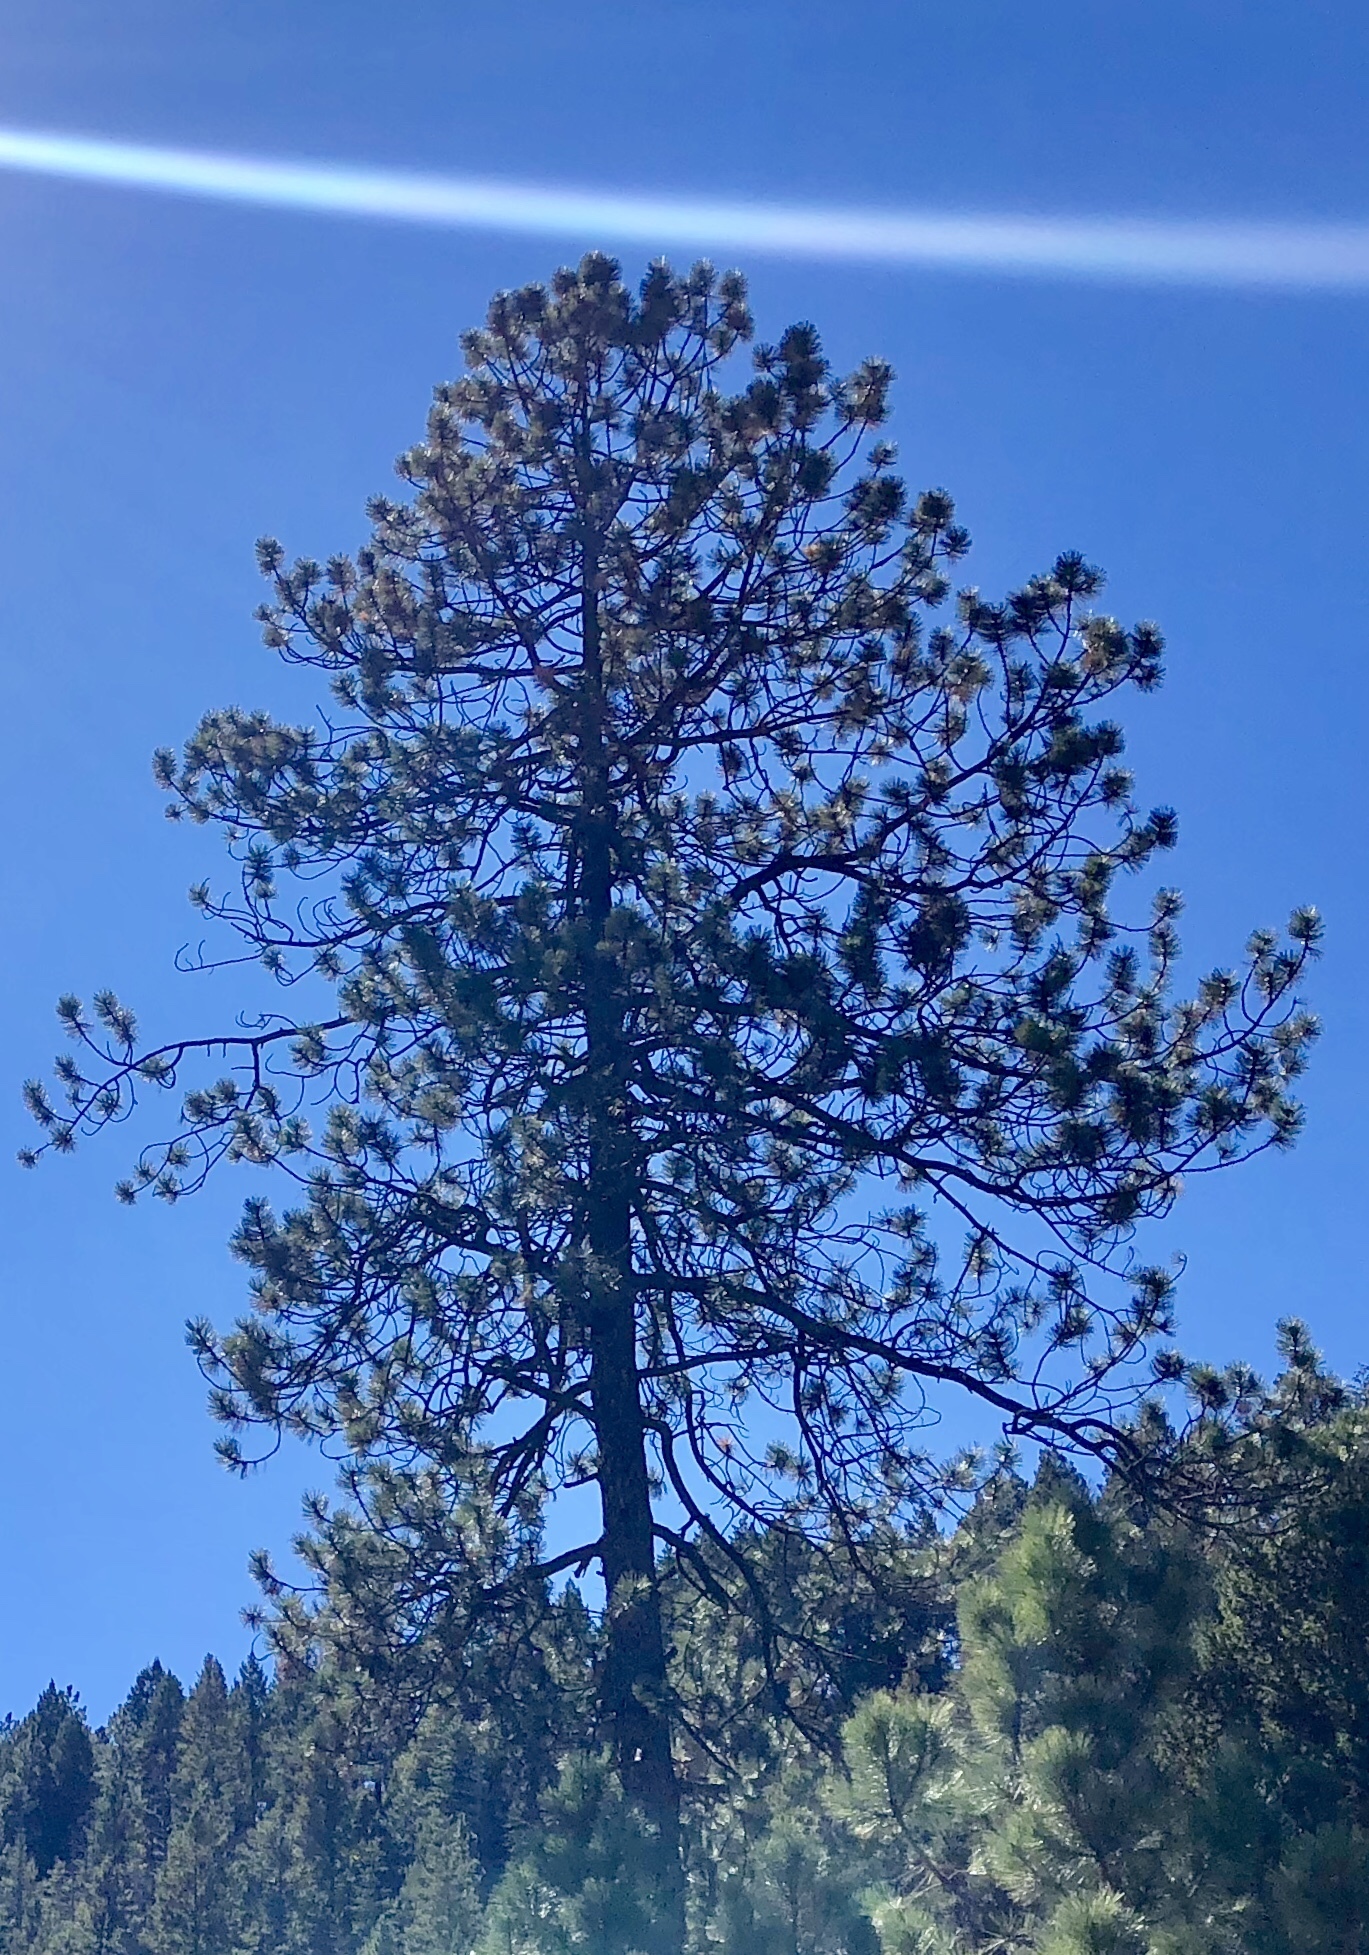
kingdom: Plantae
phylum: Tracheophyta
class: Pinopsida
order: Pinales
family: Pinaceae
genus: Pinus
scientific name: Pinus ponderosa
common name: Western yellow-pine
